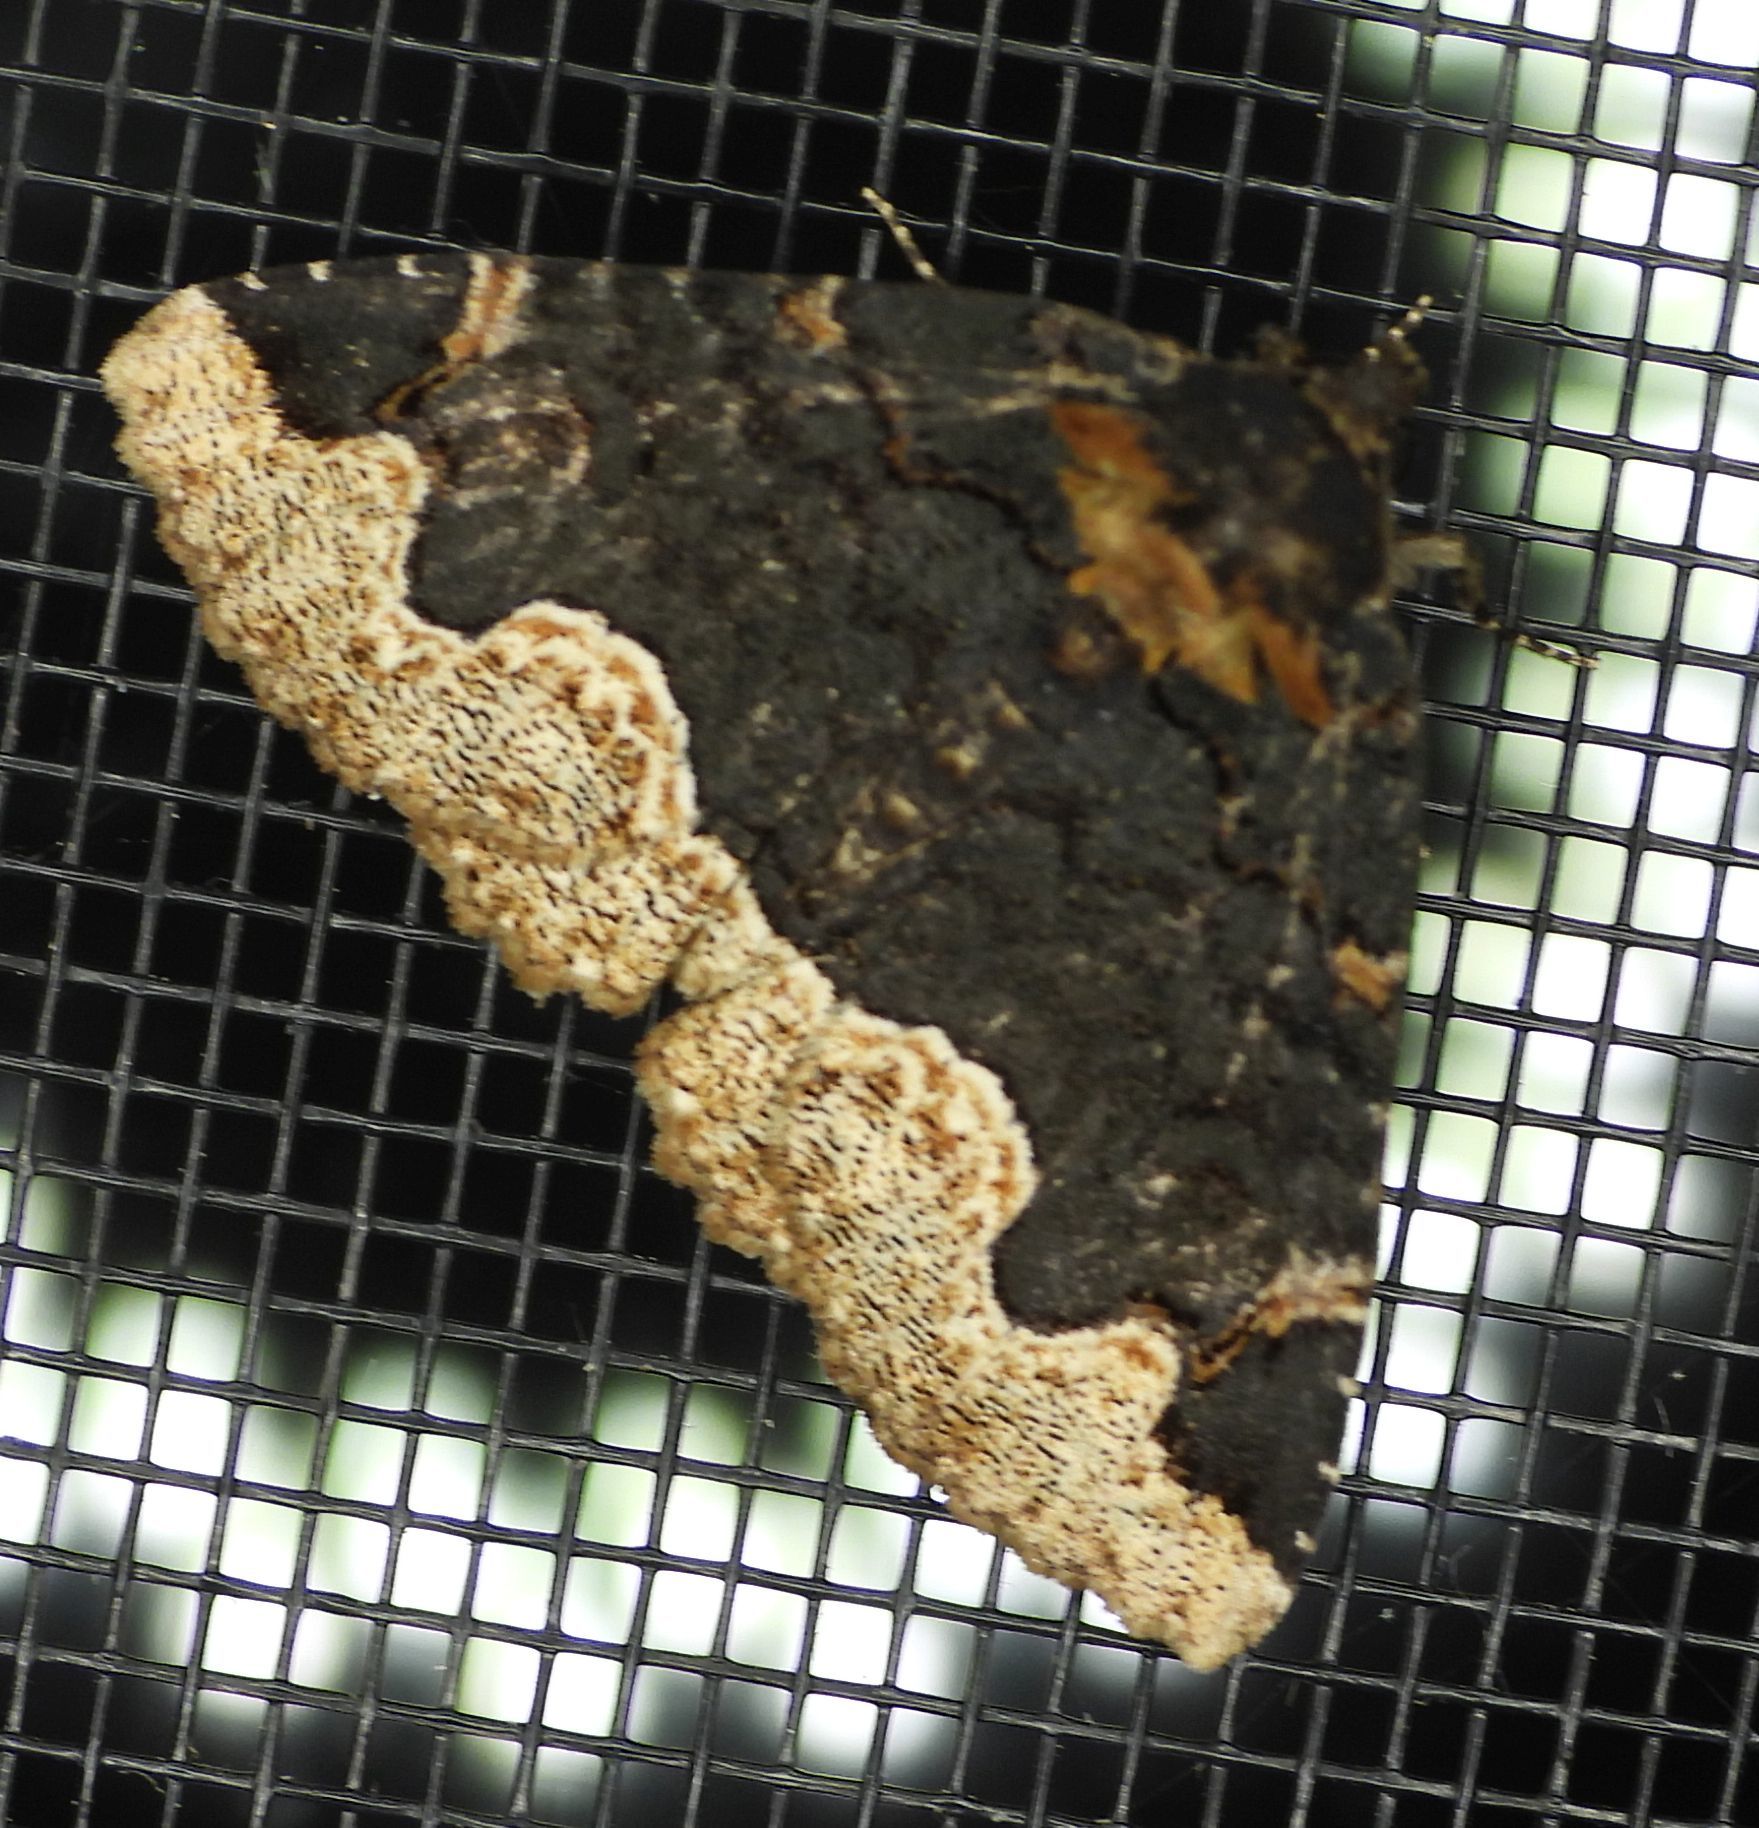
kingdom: Animalia
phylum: Arthropoda
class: Insecta
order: Lepidoptera
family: Erebidae
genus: Zale
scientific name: Zale horrida
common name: Horrid zale moth
